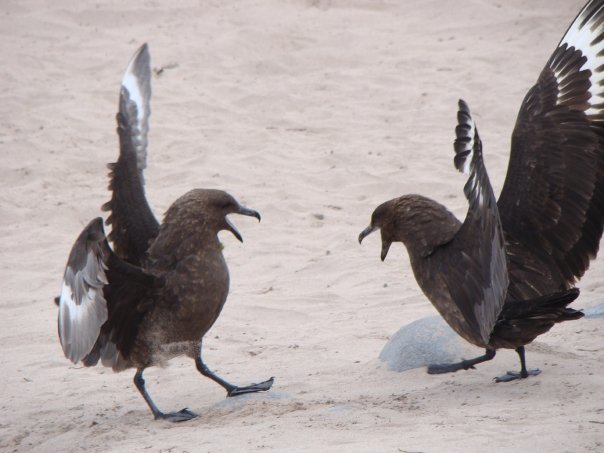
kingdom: Animalia
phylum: Chordata
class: Aves
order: Charadriiformes
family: Stercorariidae
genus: Stercorarius
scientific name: Stercorarius antarcticus
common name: Brown skua
